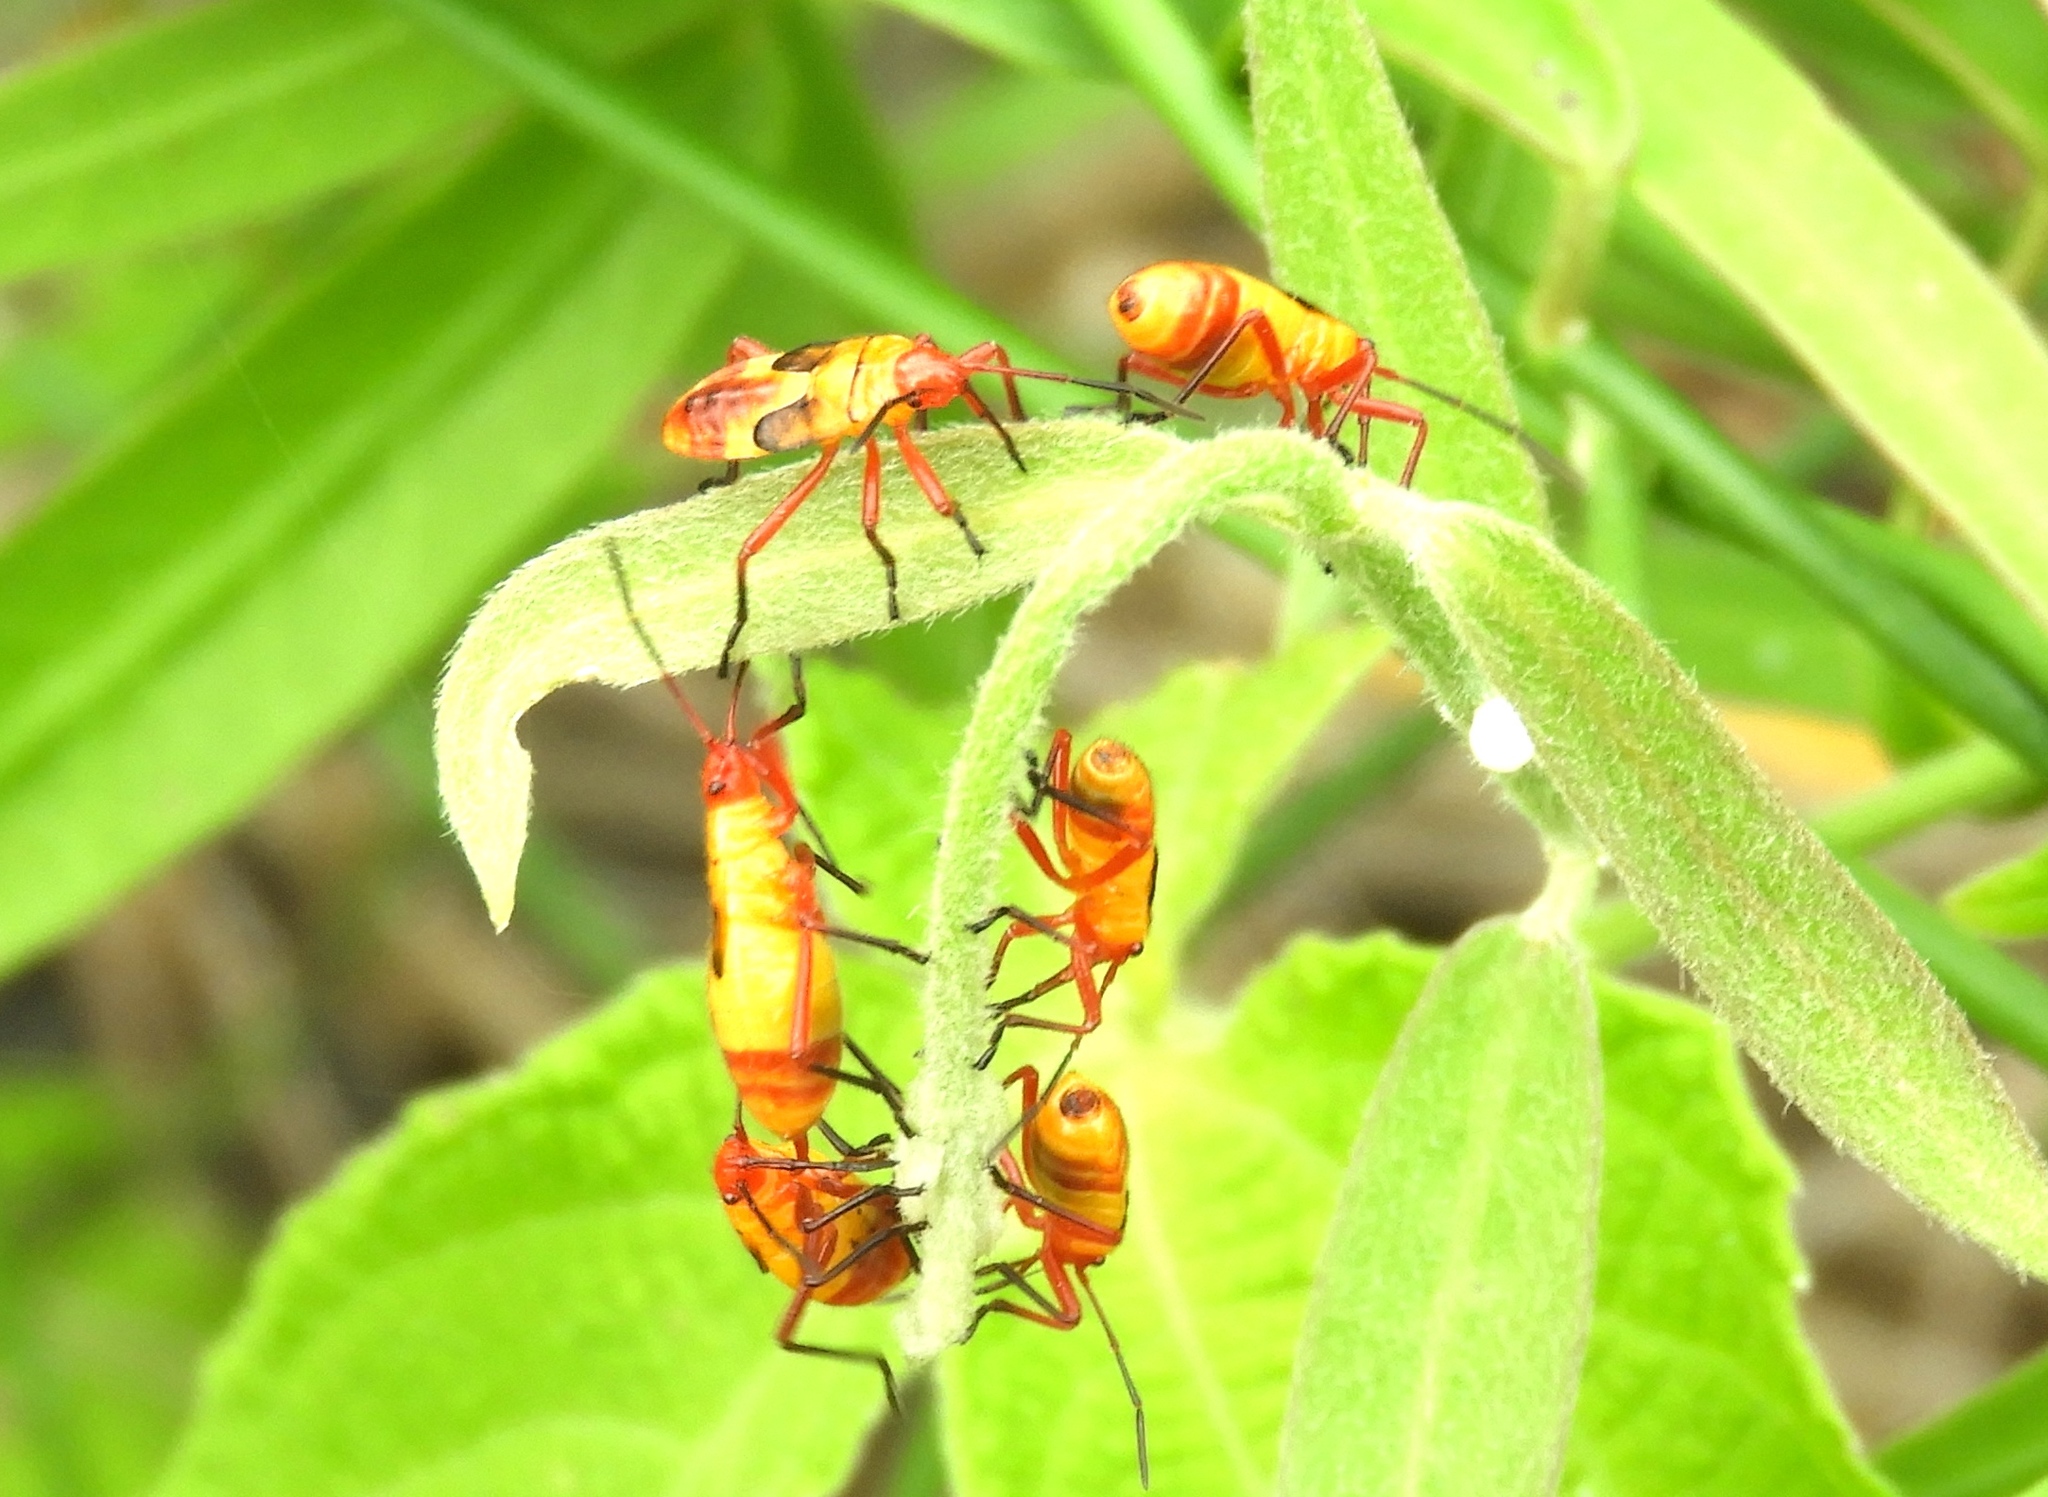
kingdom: Animalia
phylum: Arthropoda
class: Insecta
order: Hemiptera
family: Lygaeidae
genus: Oncopeltus
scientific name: Oncopeltus guttaloides
